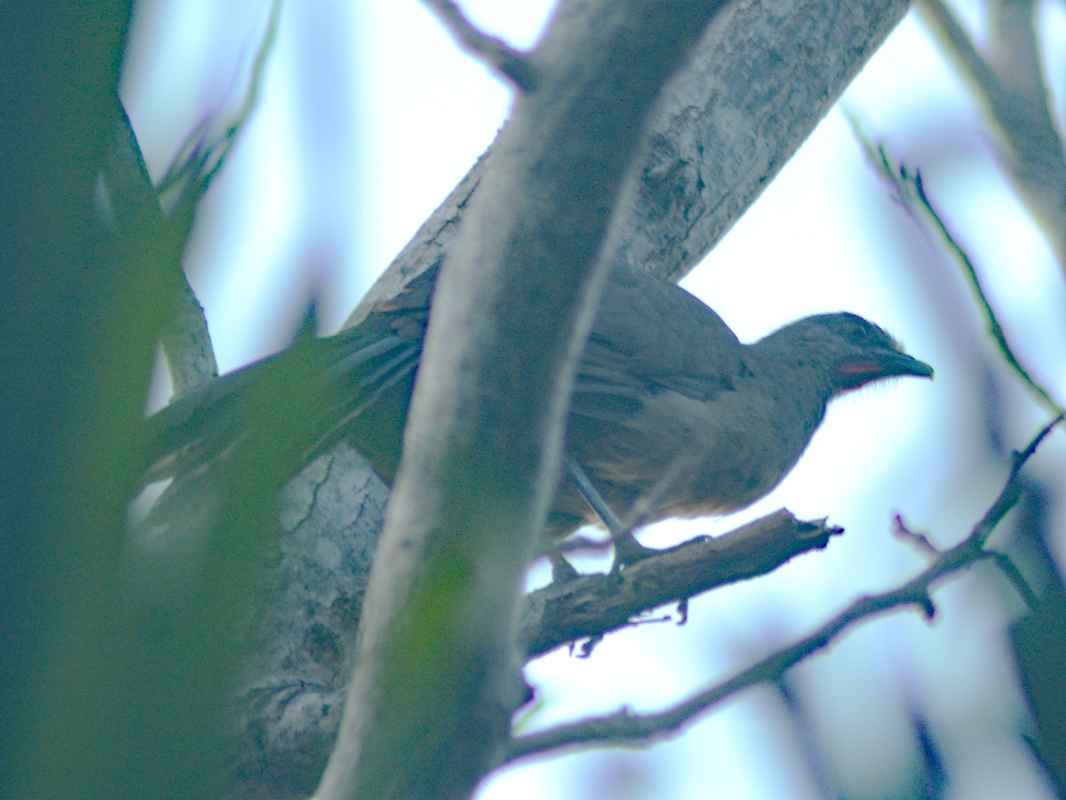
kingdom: Animalia
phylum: Chordata
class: Aves
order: Galliformes
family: Cracidae
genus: Ortalis
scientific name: Ortalis vetula
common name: Plain chachalaca
